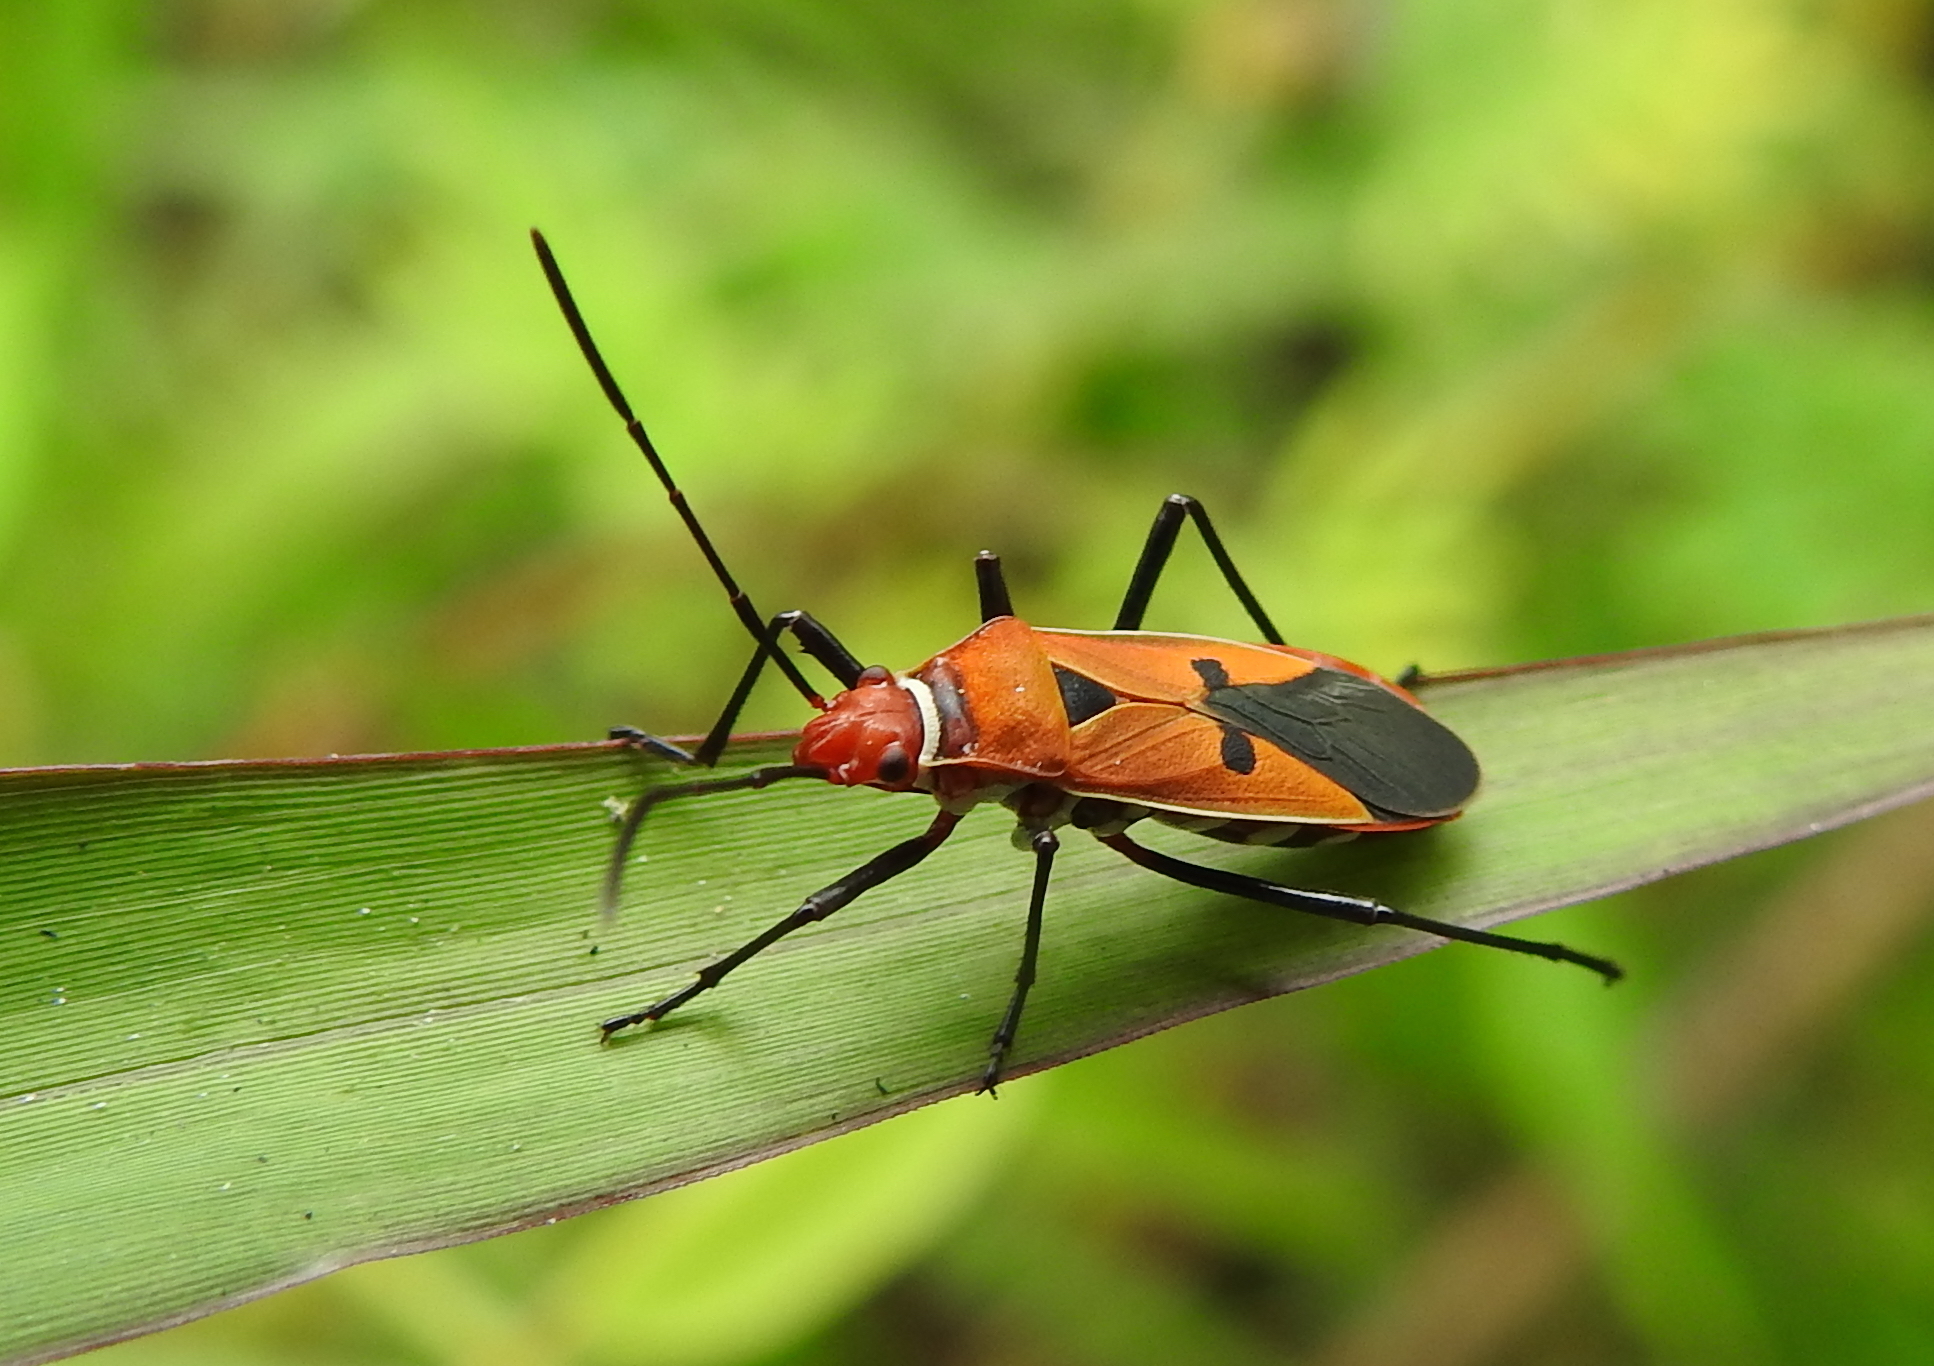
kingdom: Animalia
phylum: Arthropoda
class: Insecta
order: Hemiptera
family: Pyrrhocoridae
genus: Dysdercus
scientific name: Dysdercus poecilus
